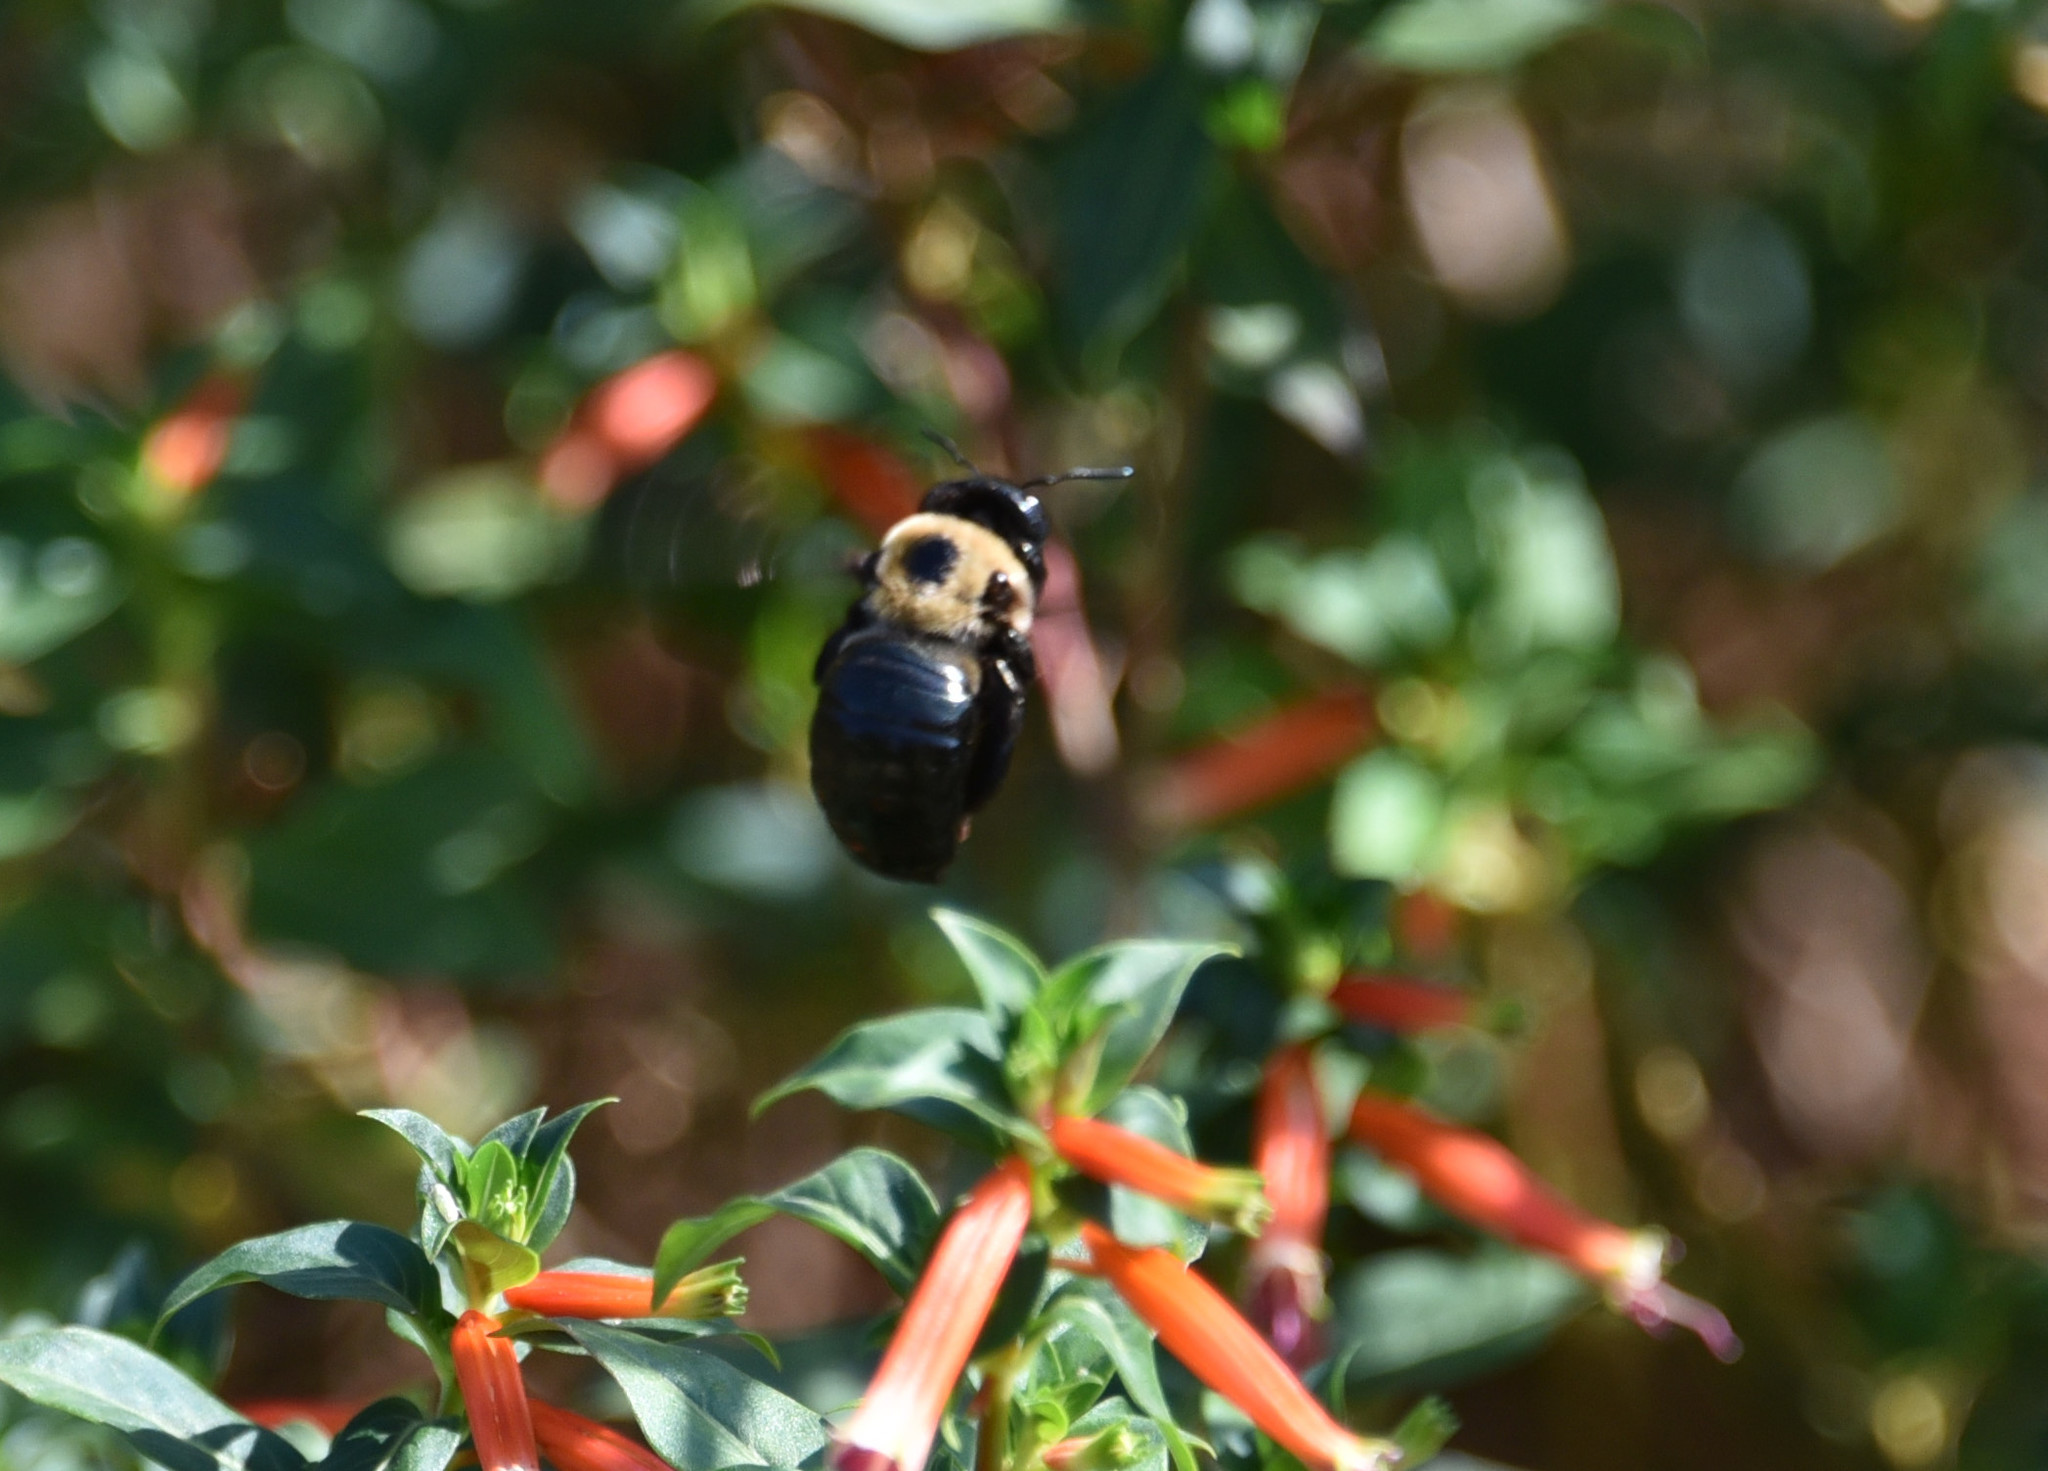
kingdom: Animalia
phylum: Arthropoda
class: Insecta
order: Hymenoptera
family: Apidae
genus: Xylocopa
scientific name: Xylocopa virginica
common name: Carpenter bee
